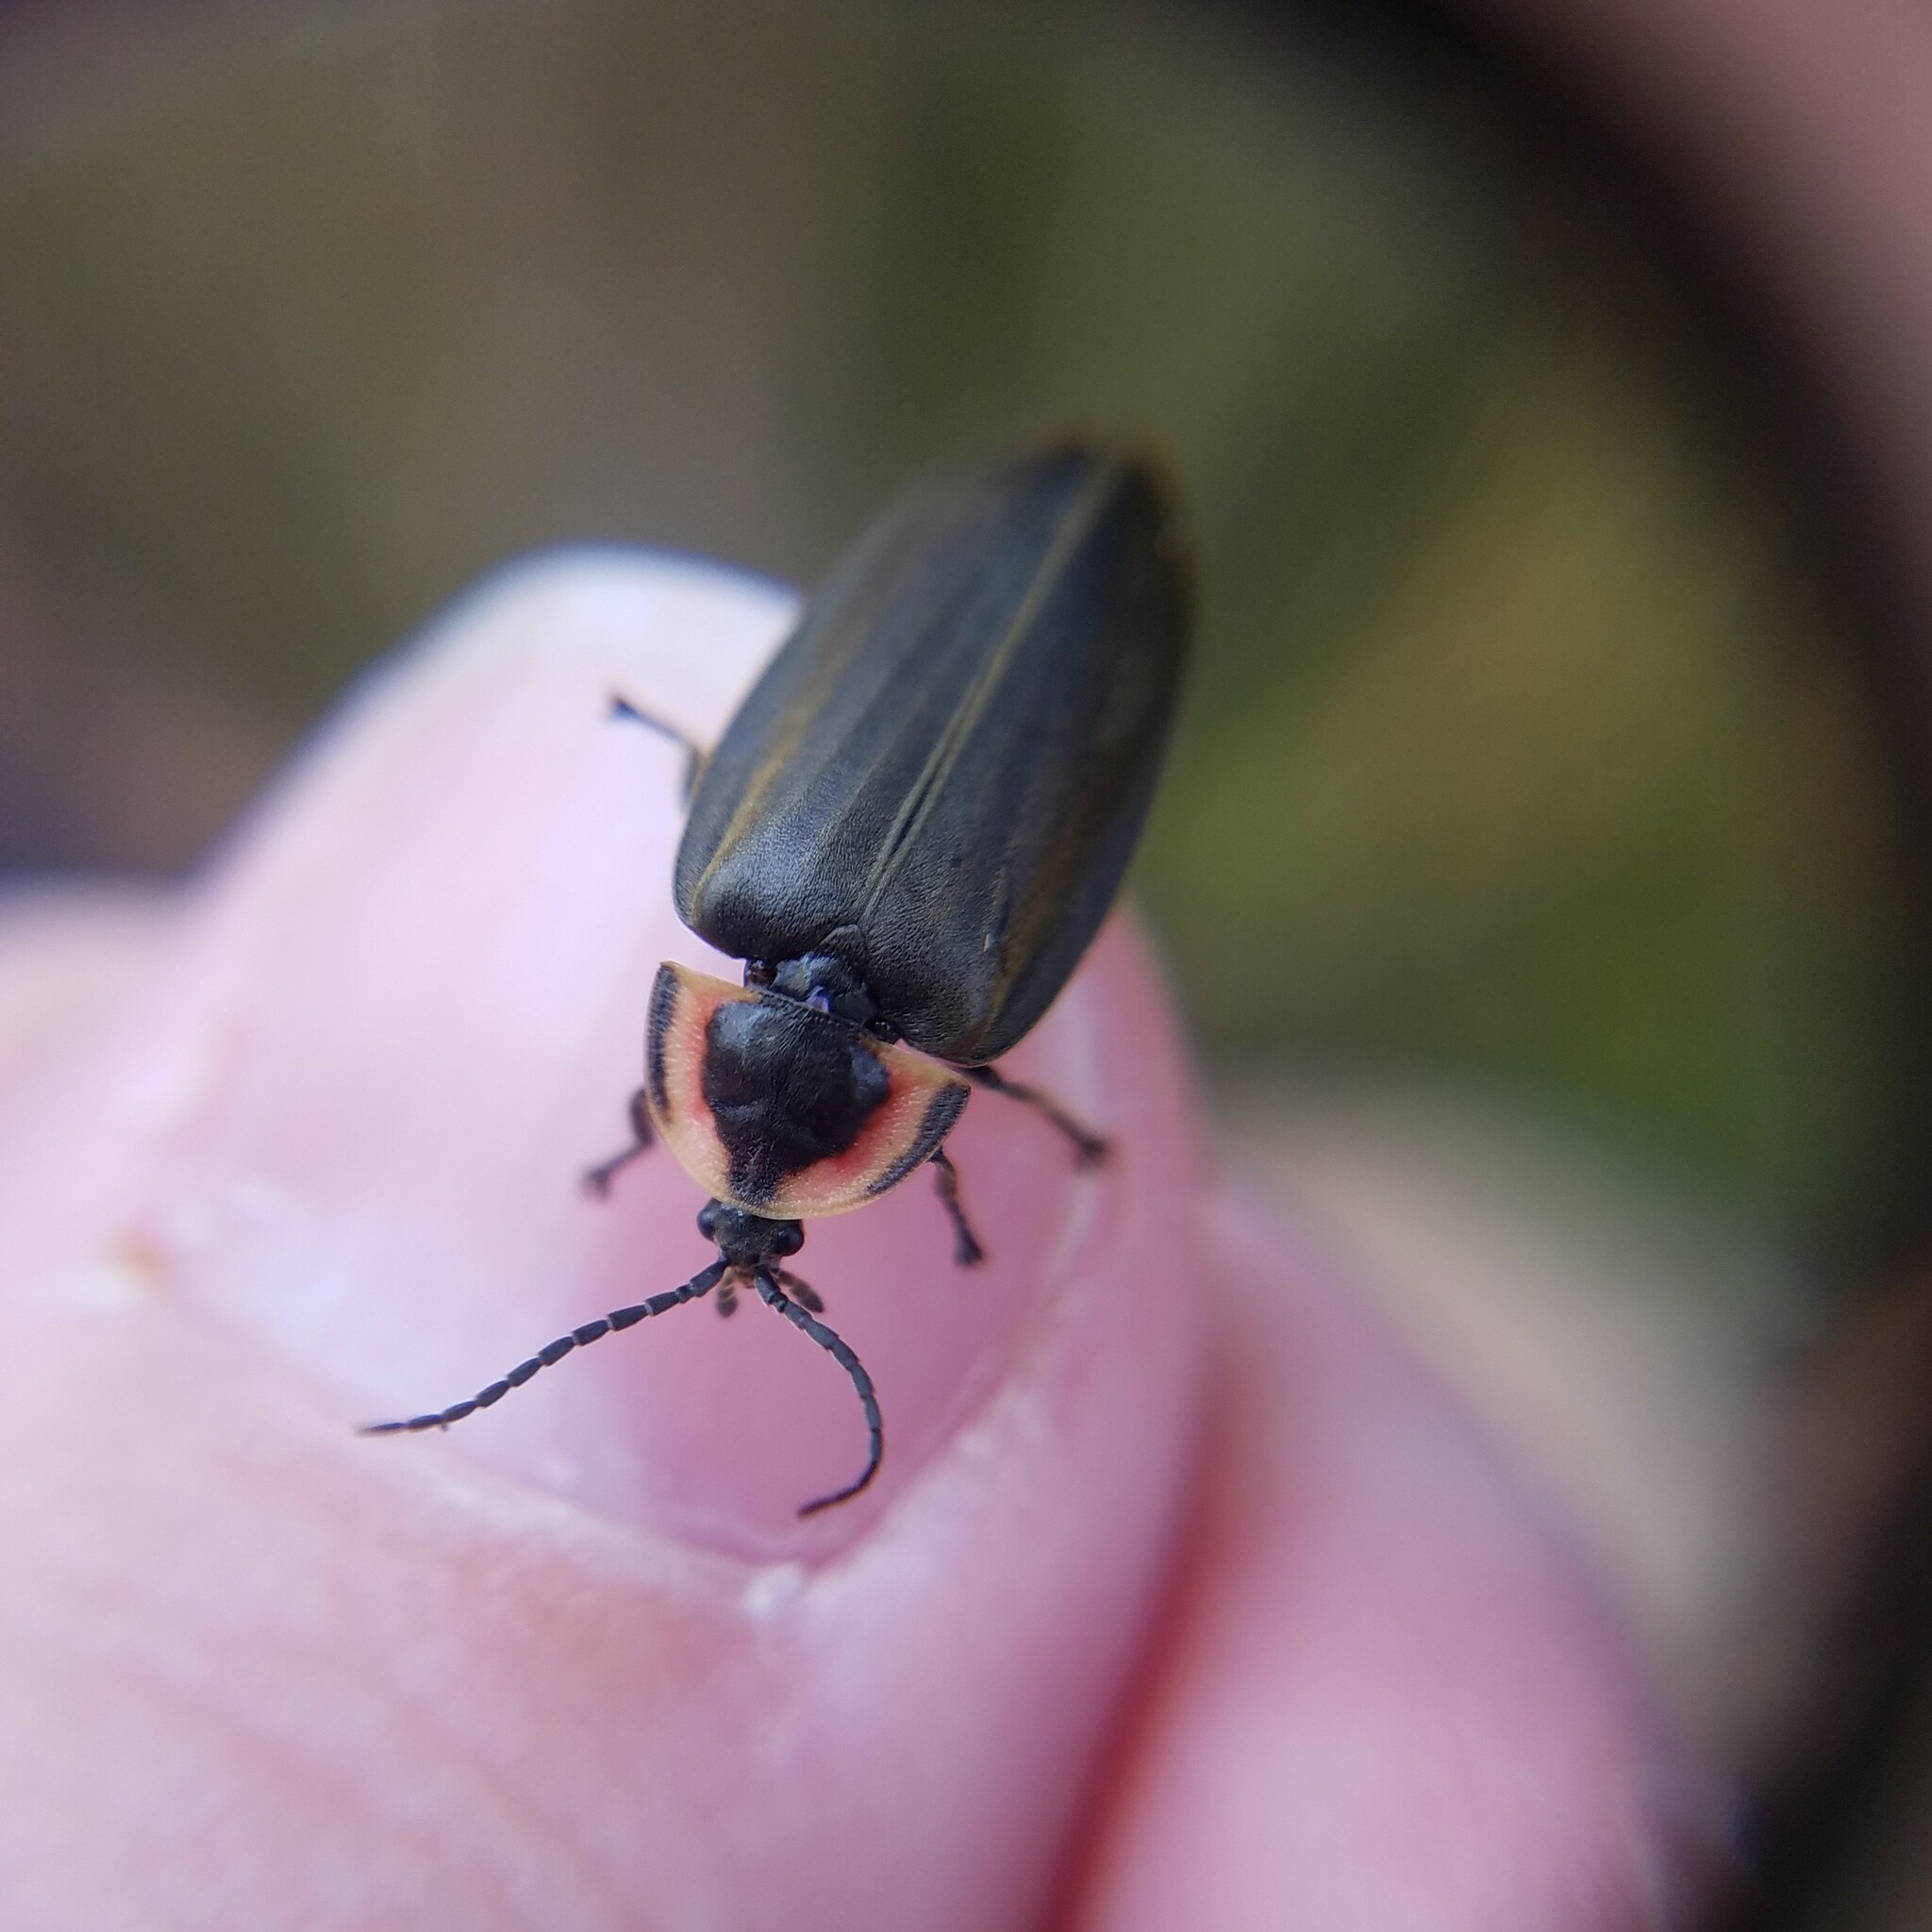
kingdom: Animalia
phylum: Arthropoda
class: Insecta
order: Coleoptera
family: Lampyridae
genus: Photinus
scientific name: Photinus corrusca
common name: Winter firefly
